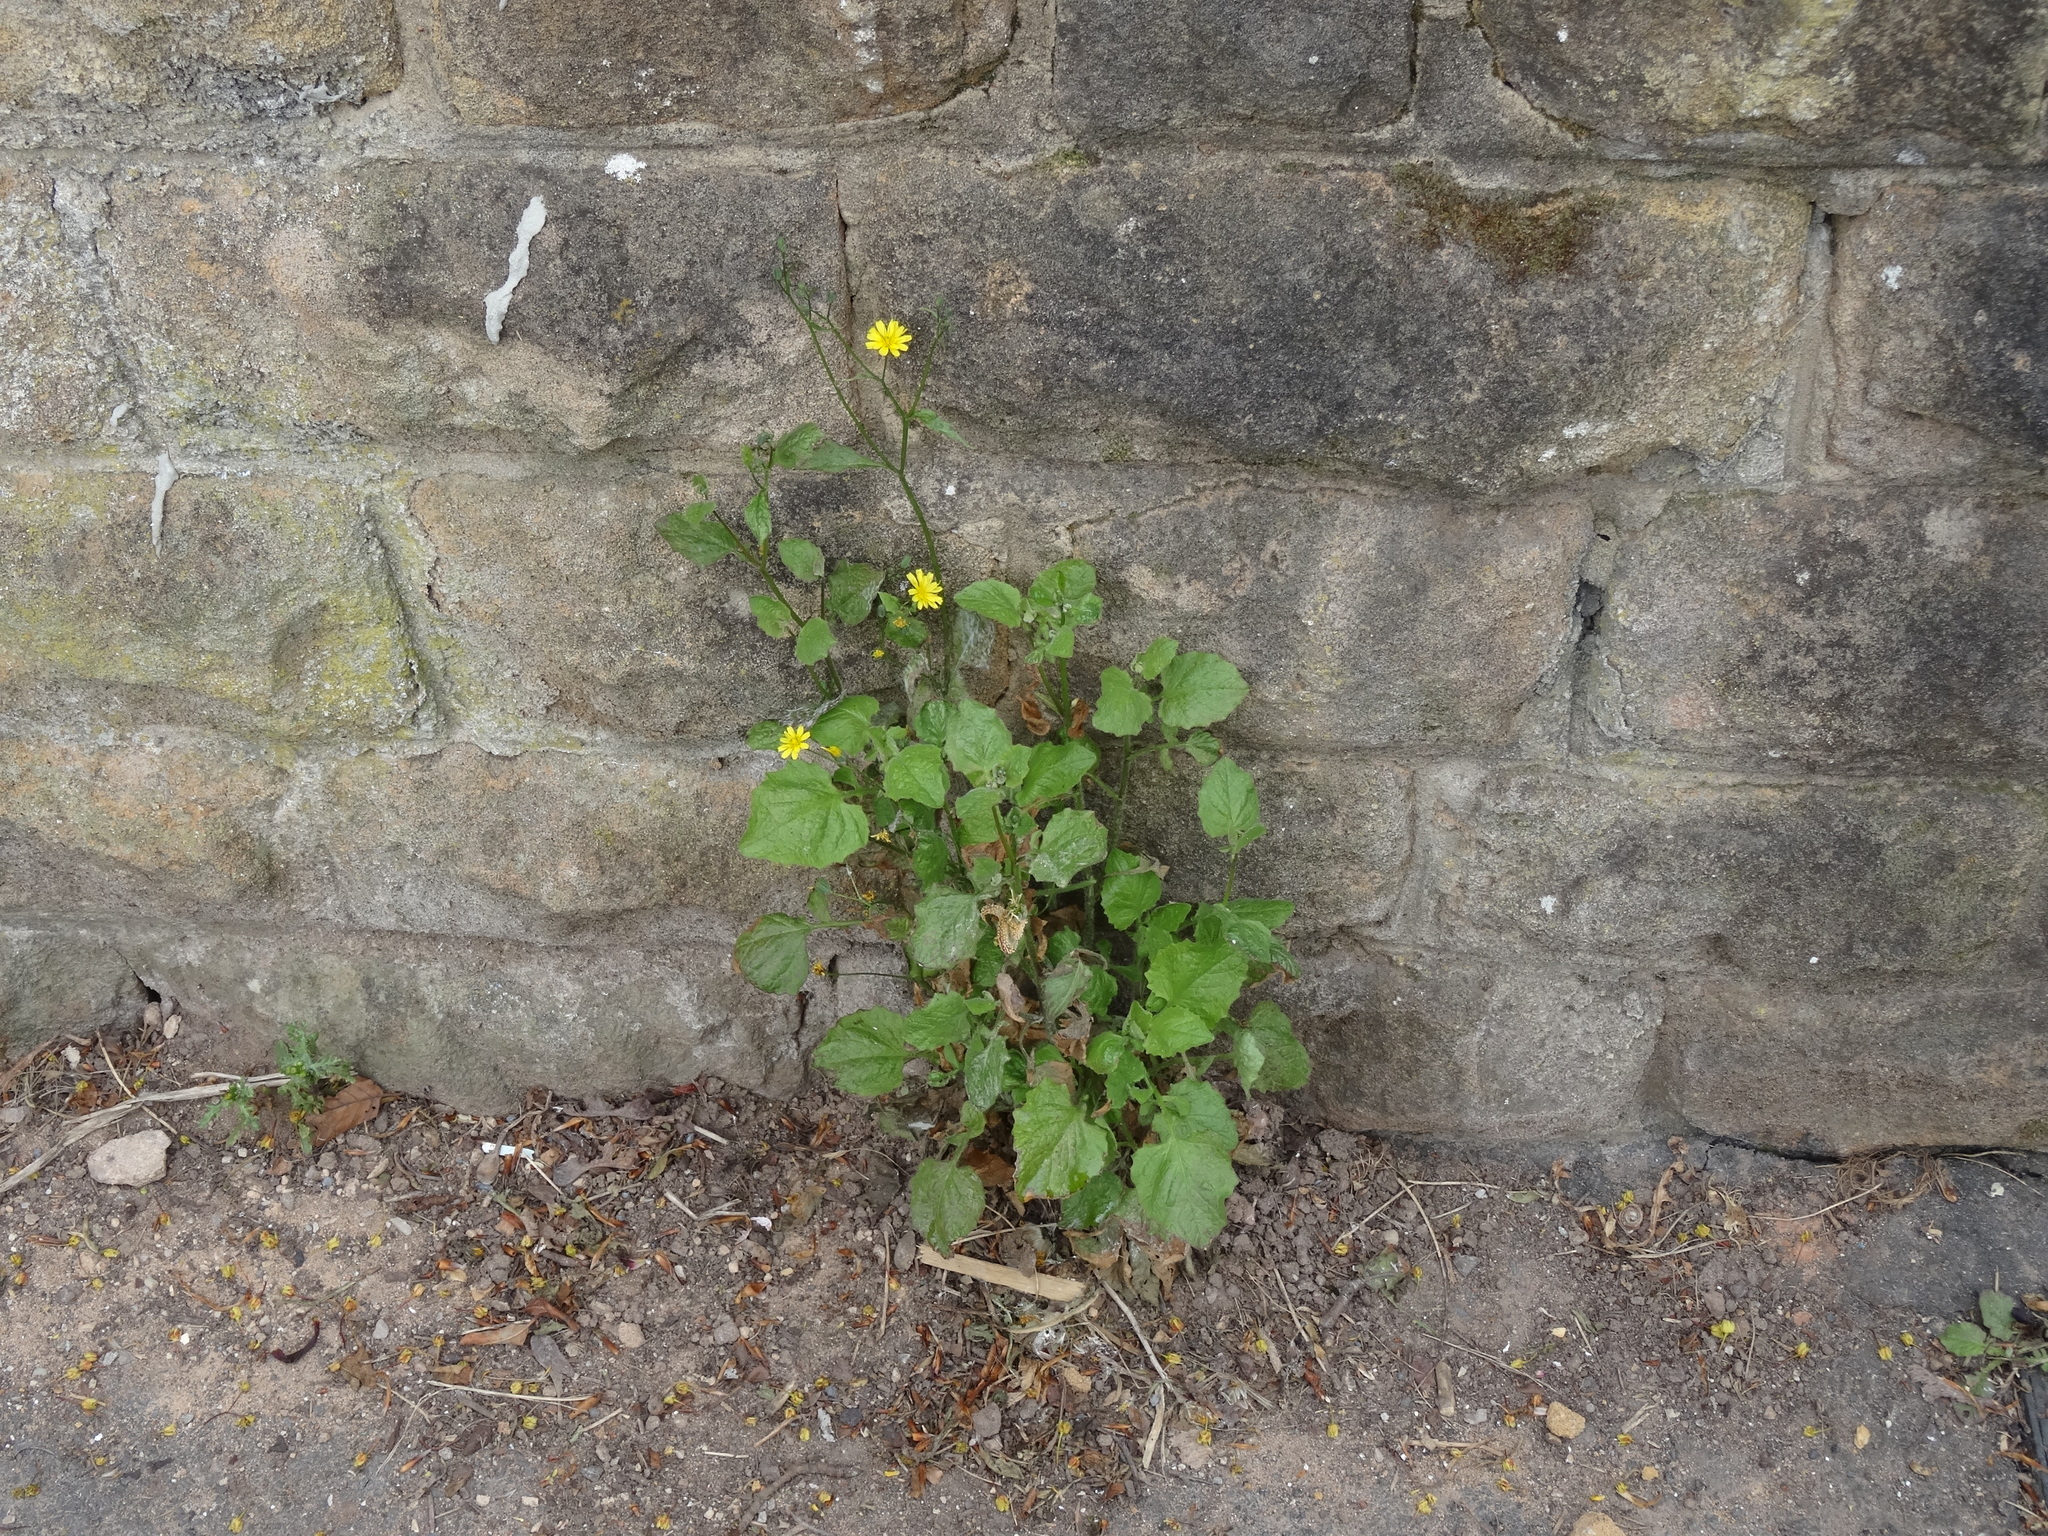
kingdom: Plantae
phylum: Tracheophyta
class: Magnoliopsida
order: Asterales
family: Asteraceae
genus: Lapsana
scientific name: Lapsana communis
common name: Nipplewort
